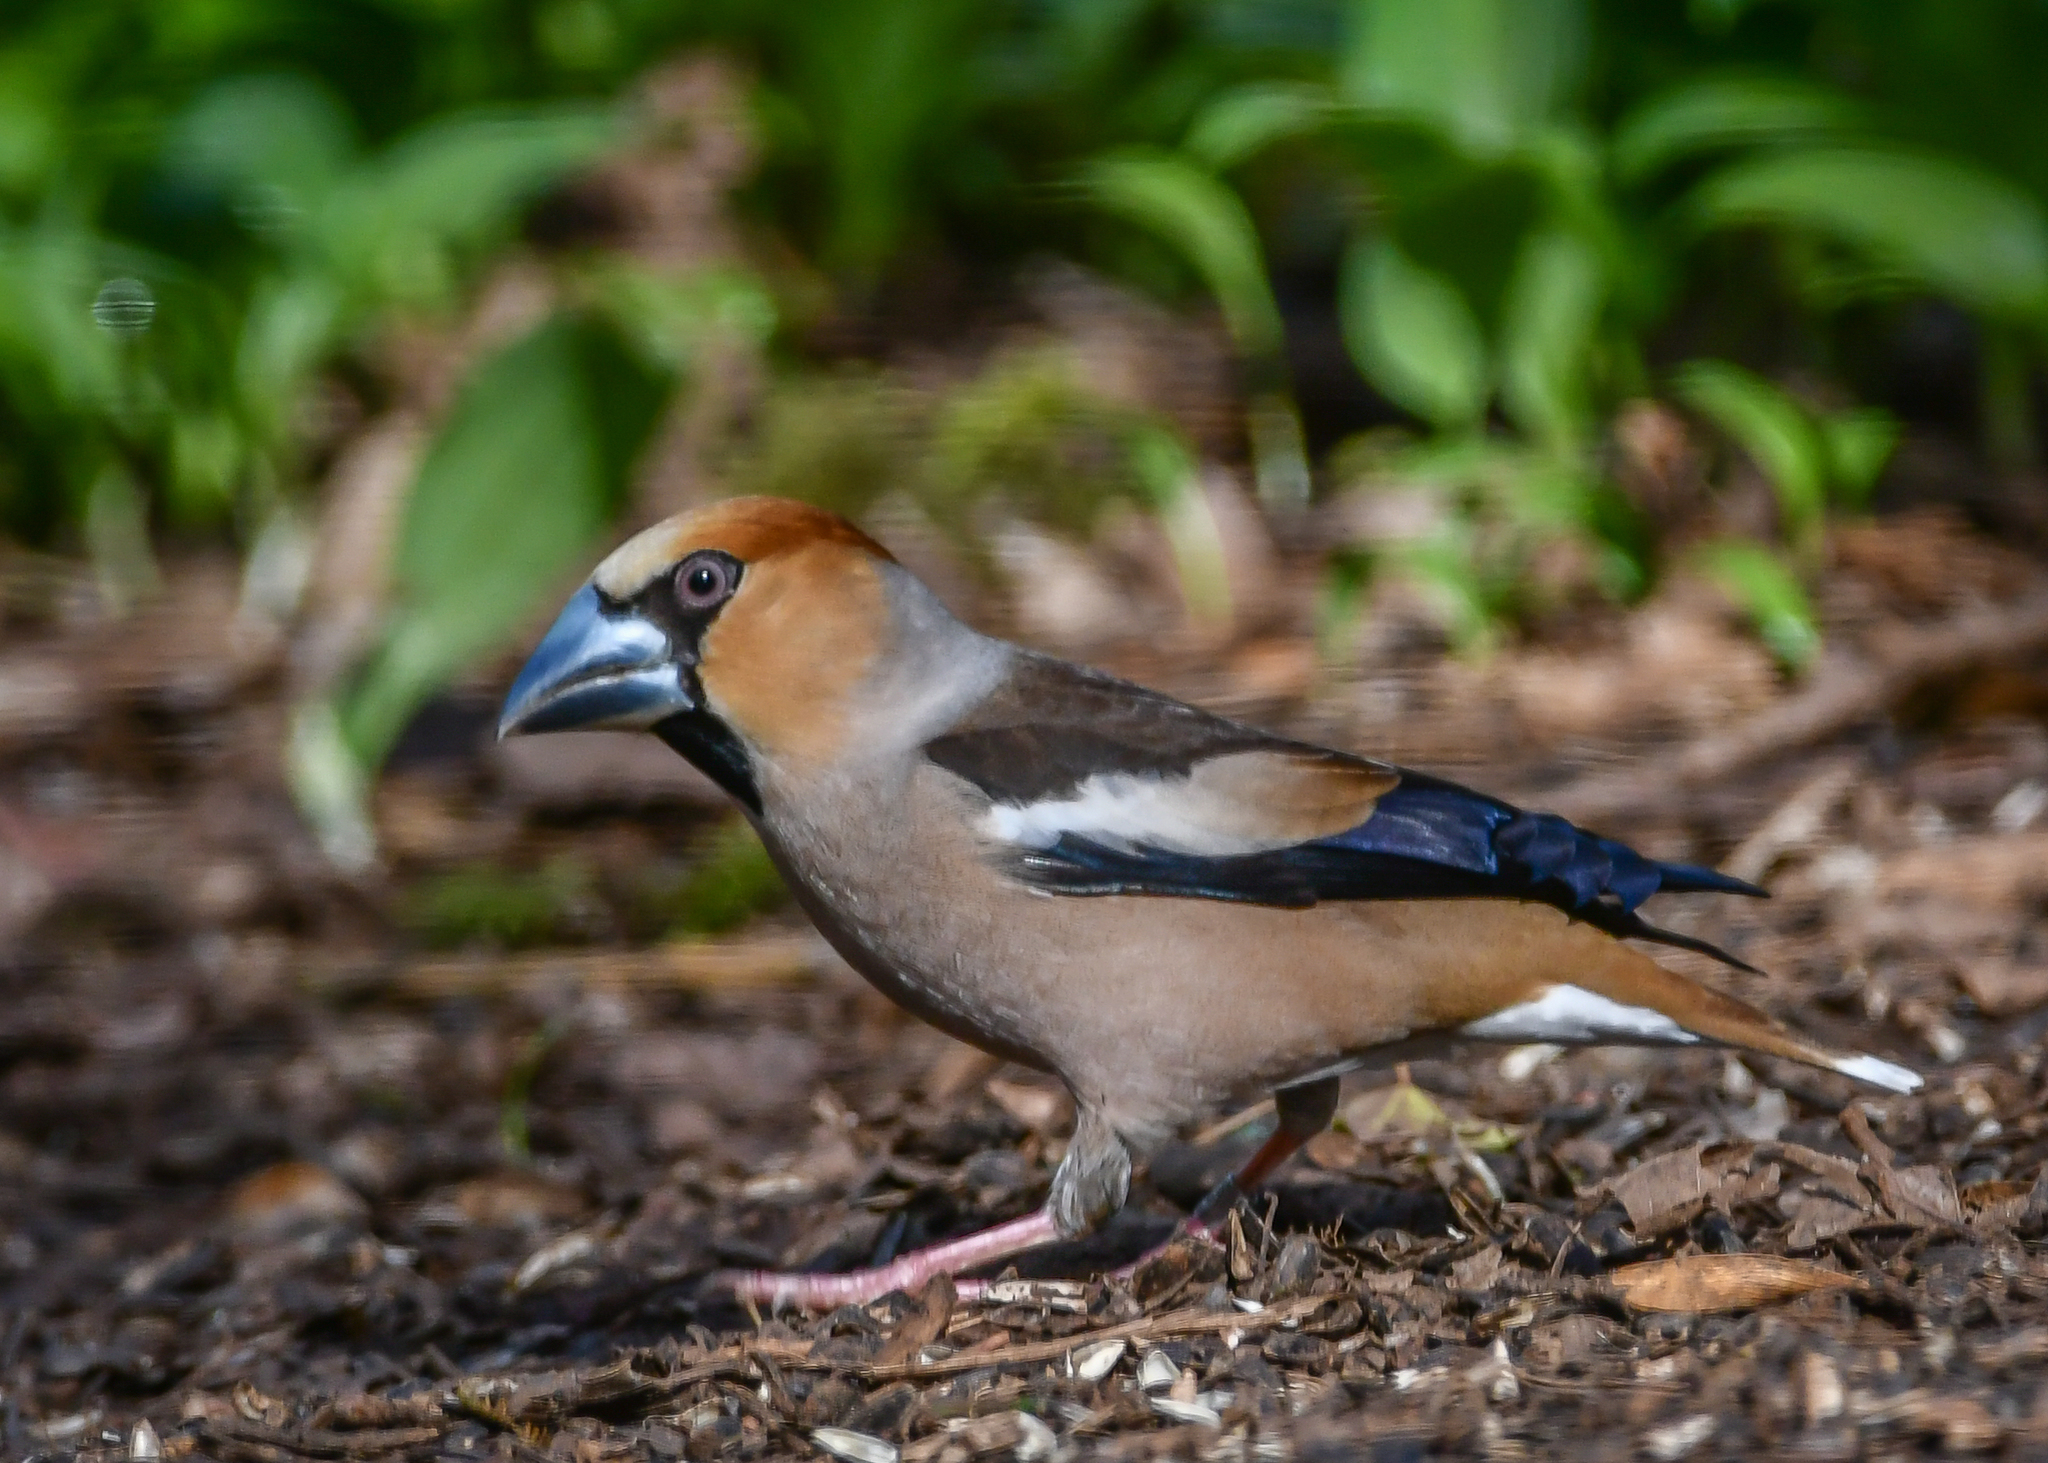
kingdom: Animalia
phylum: Chordata
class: Aves
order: Passeriformes
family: Fringillidae
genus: Coccothraustes
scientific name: Coccothraustes coccothraustes
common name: Hawfinch
